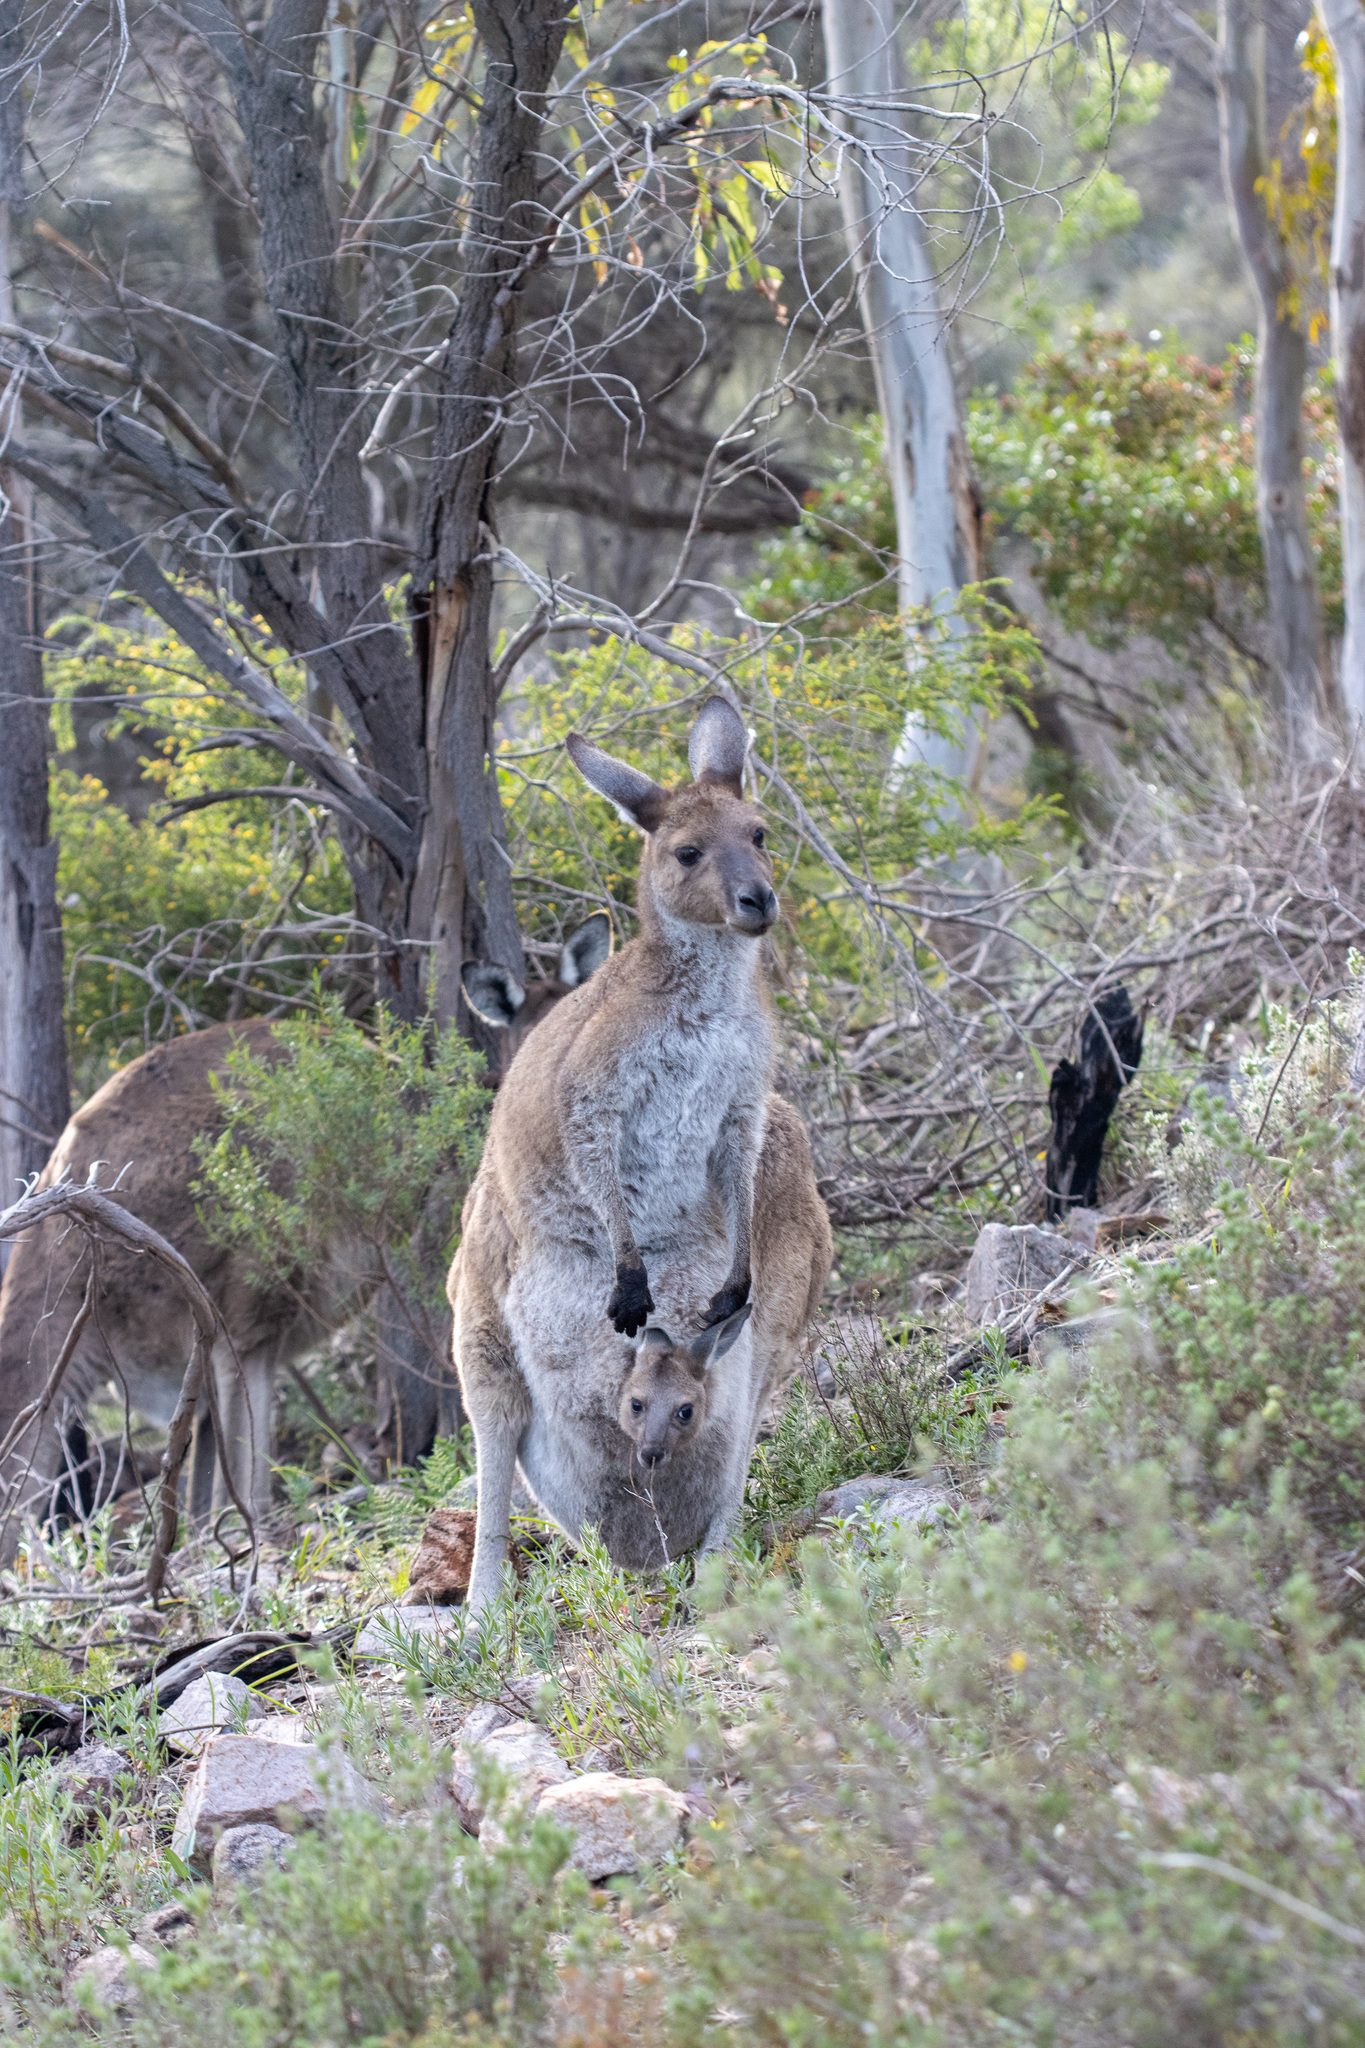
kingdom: Animalia
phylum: Chordata
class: Mammalia
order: Diprotodontia
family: Macropodidae
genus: Macropus
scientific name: Macropus fuliginosus
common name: Western grey kangaroo
